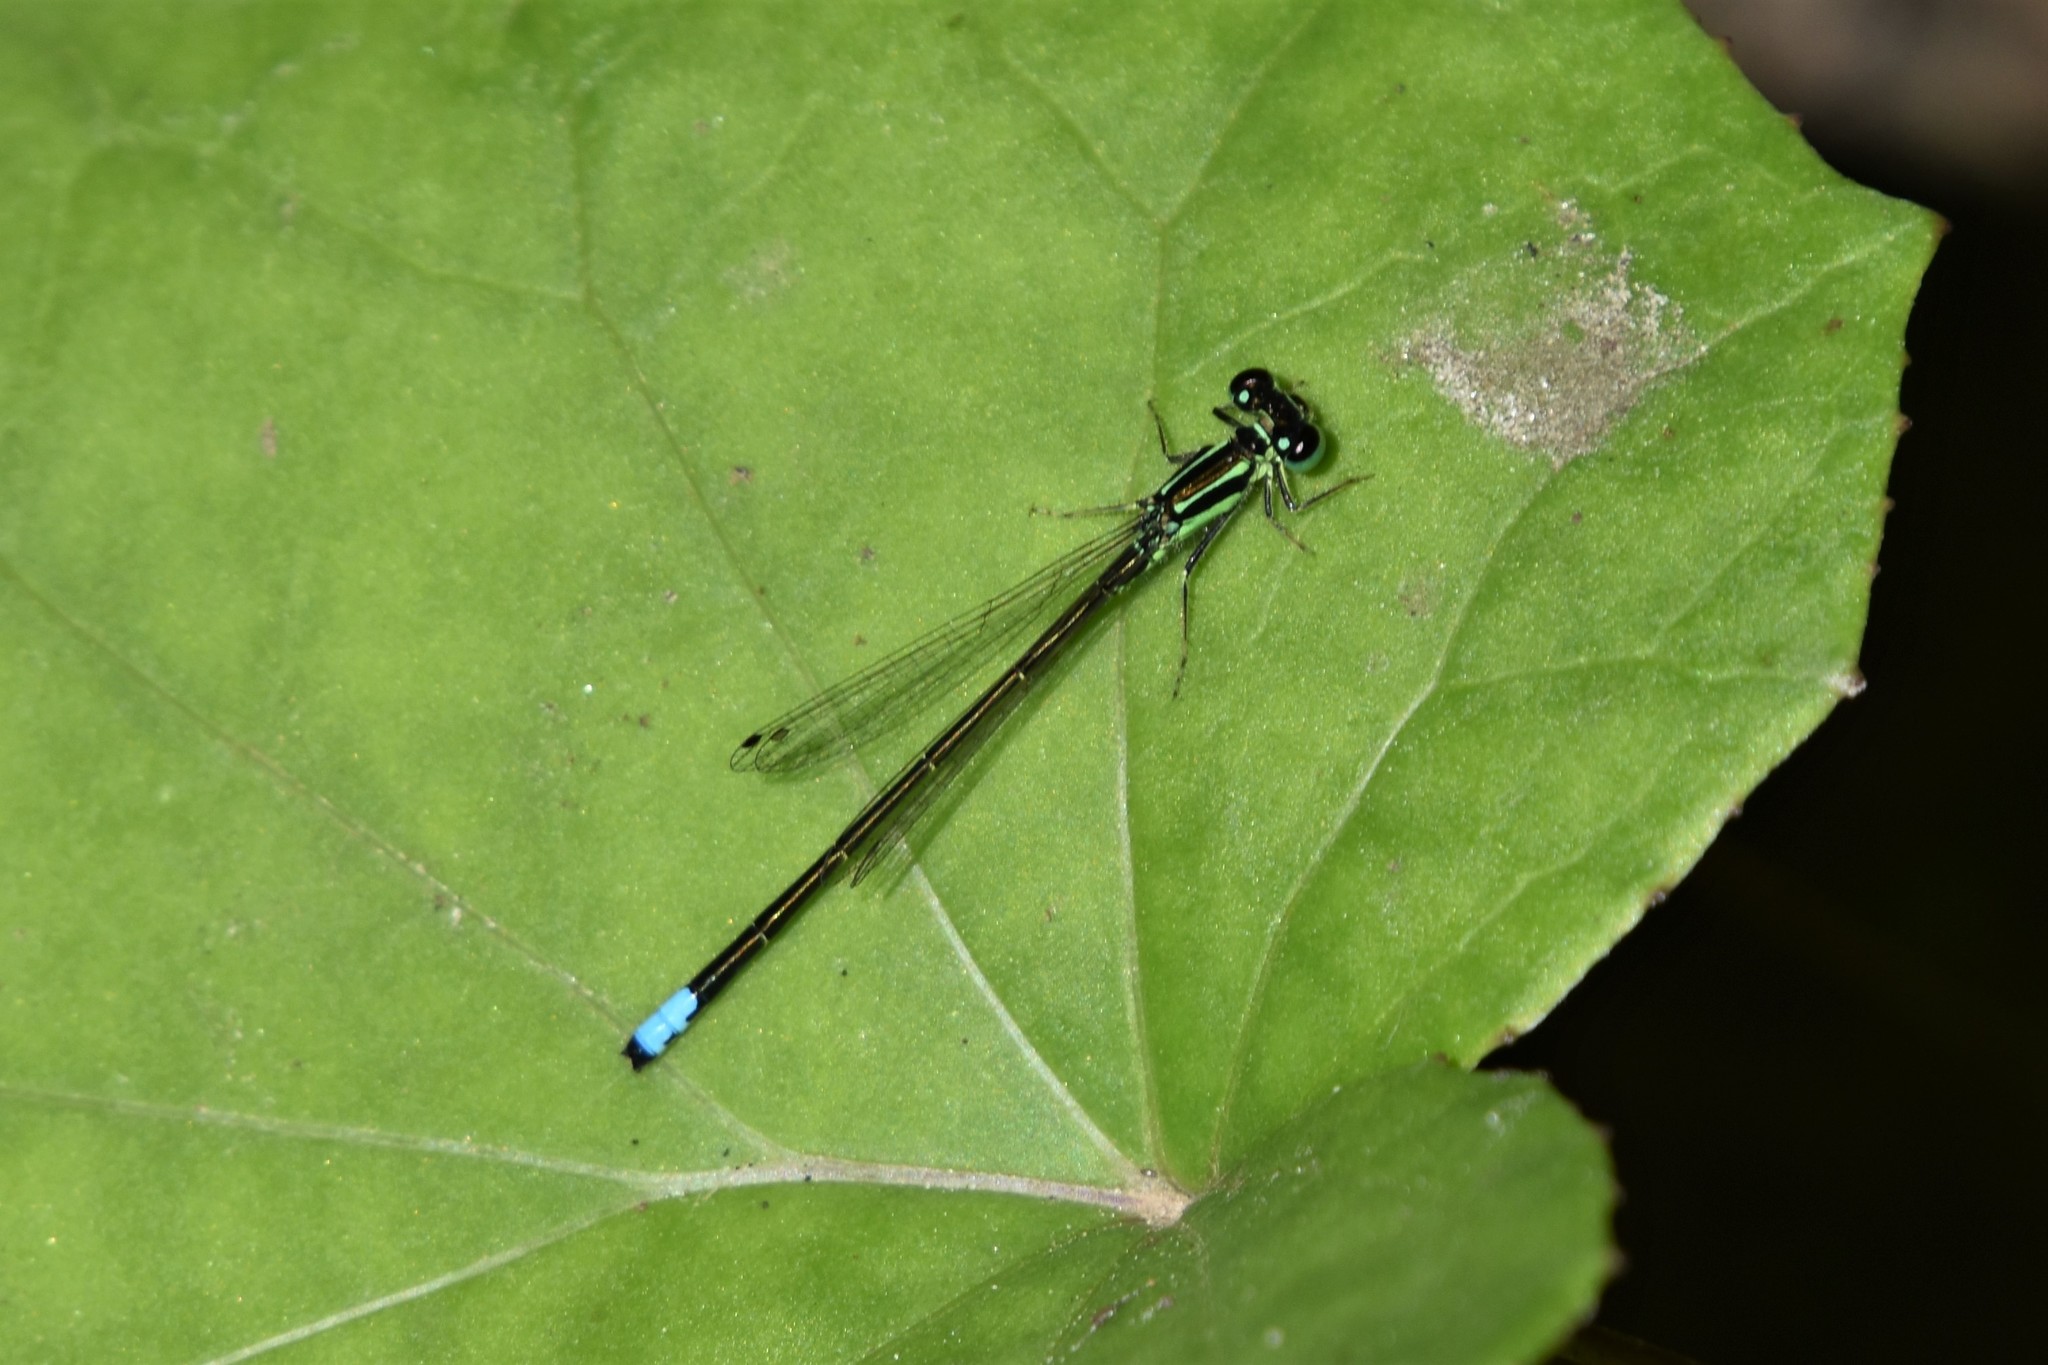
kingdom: Animalia
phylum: Arthropoda
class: Insecta
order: Odonata
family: Coenagrionidae
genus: Ischnura
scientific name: Ischnura verticalis
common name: Eastern forktail
